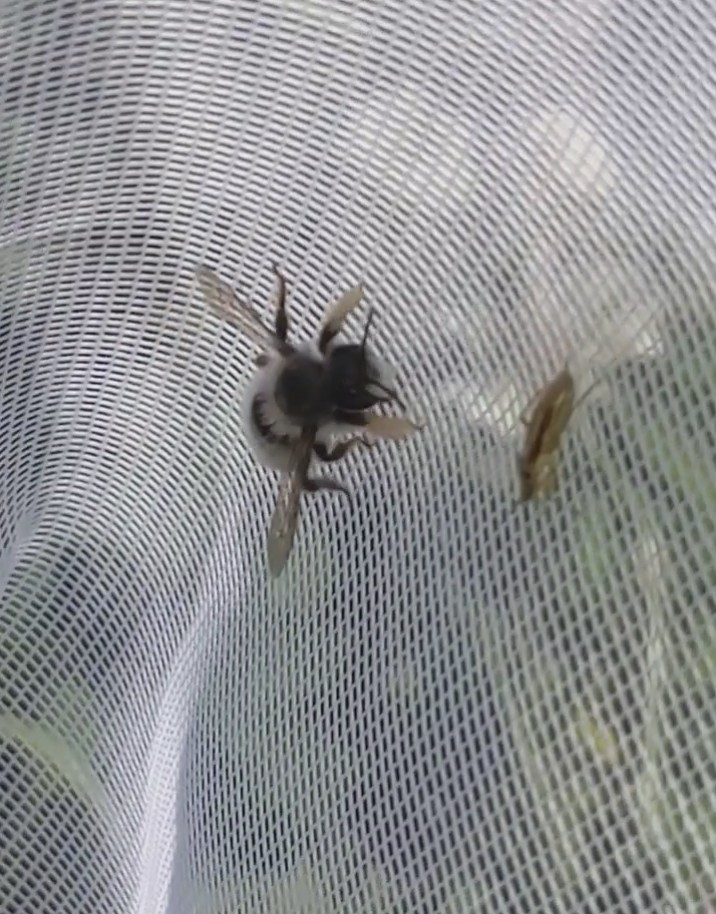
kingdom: Animalia
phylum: Arthropoda
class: Insecta
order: Hymenoptera
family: Megachilidae
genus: Megachile
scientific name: Megachile melanophaea
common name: Black-and-gray leafcutter bee
